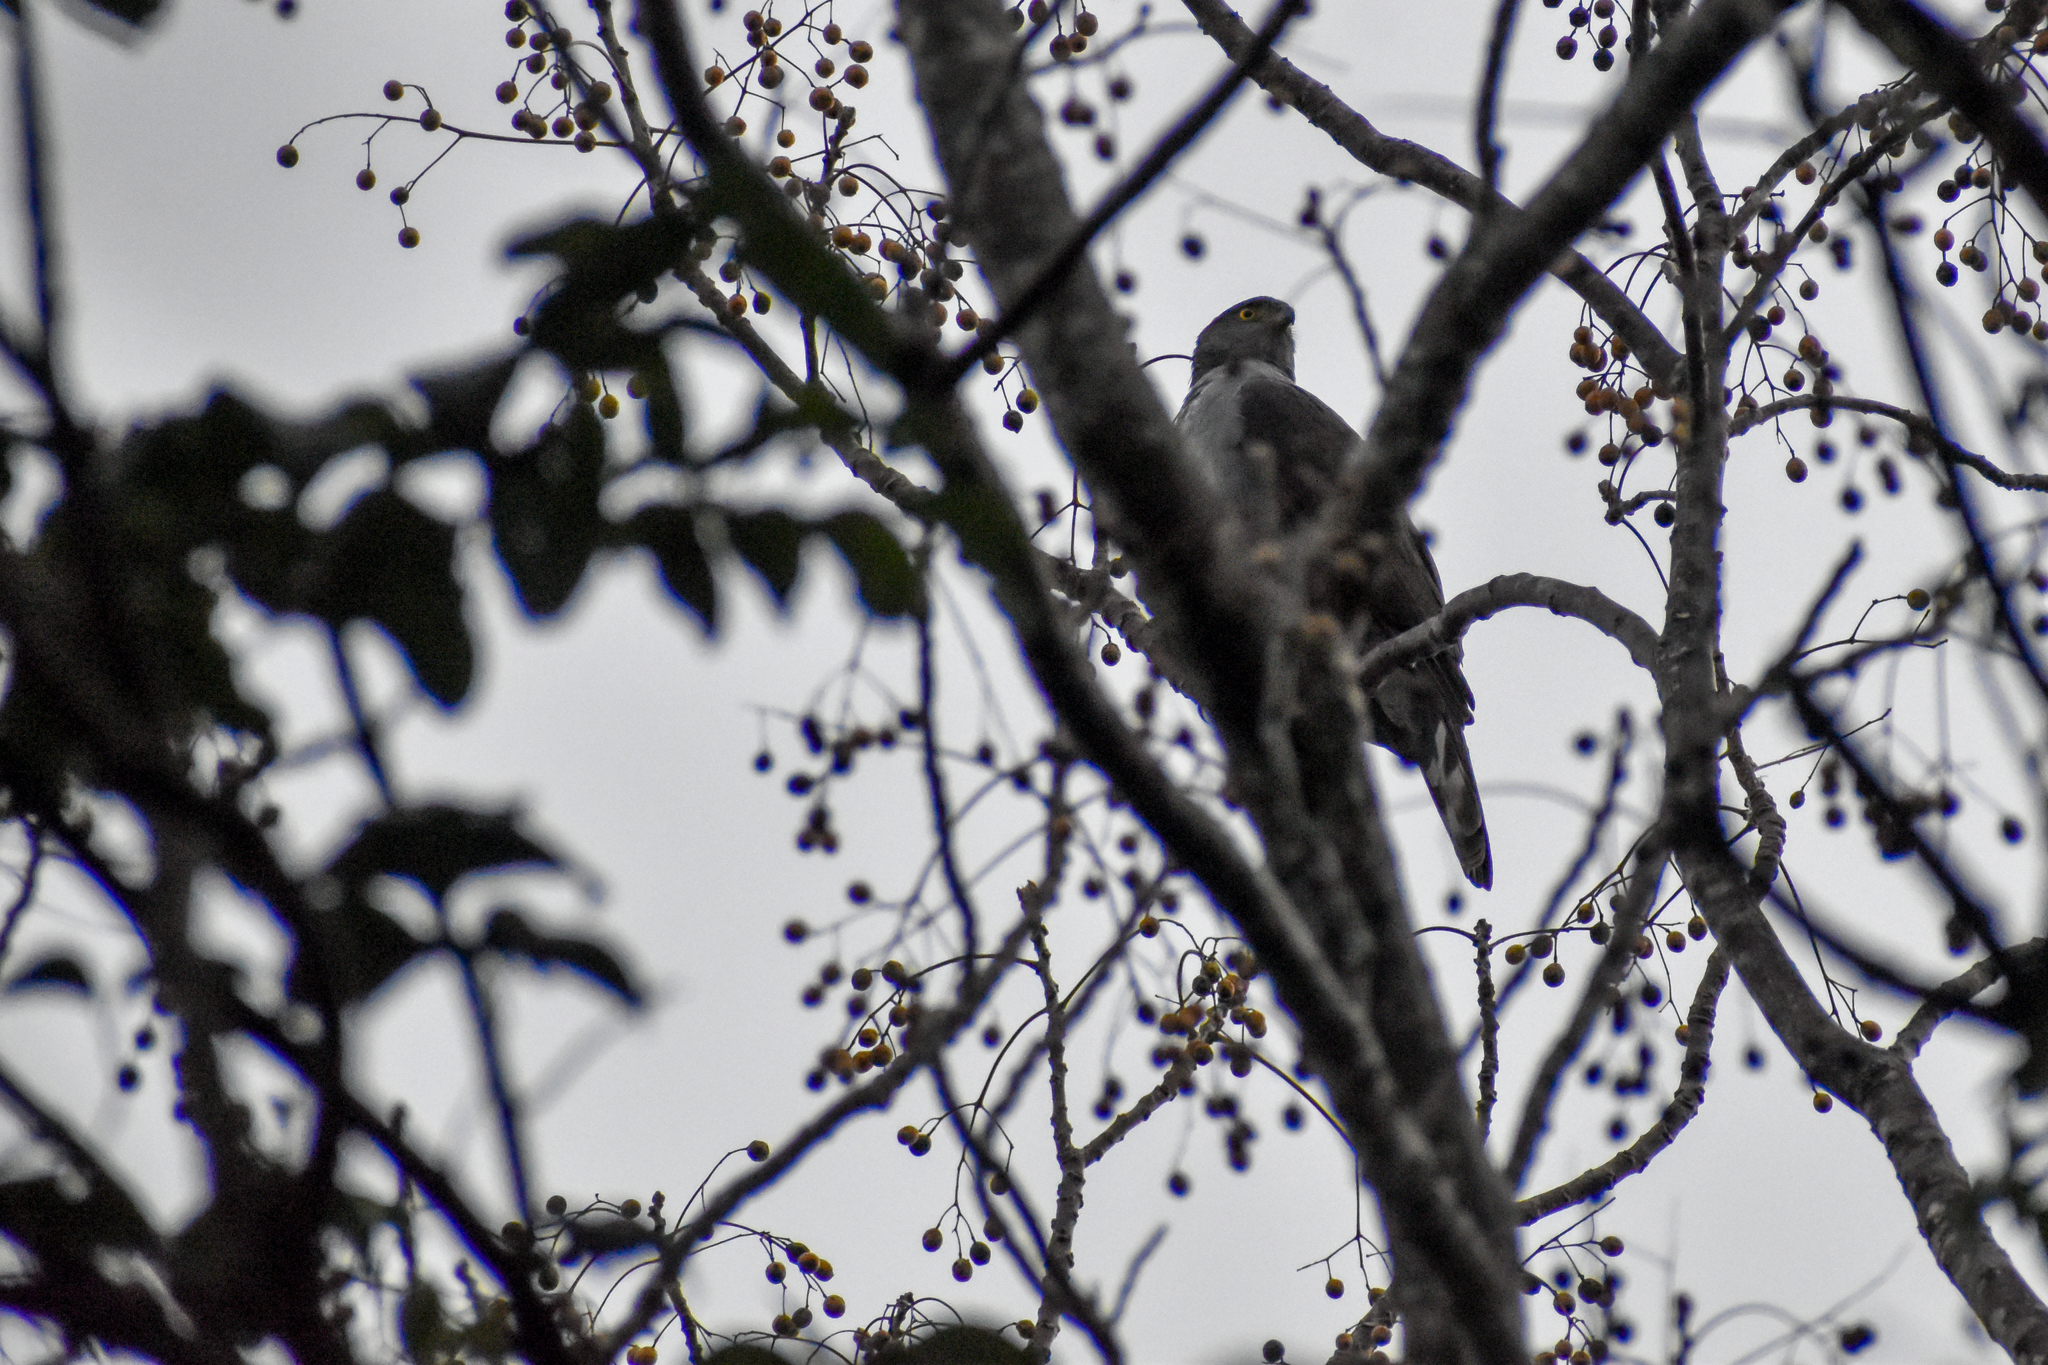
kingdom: Animalia
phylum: Chordata
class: Aves
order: Accipitriformes
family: Accipitridae
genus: Accipiter
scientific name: Accipiter bicolor
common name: Bicolored hawk
